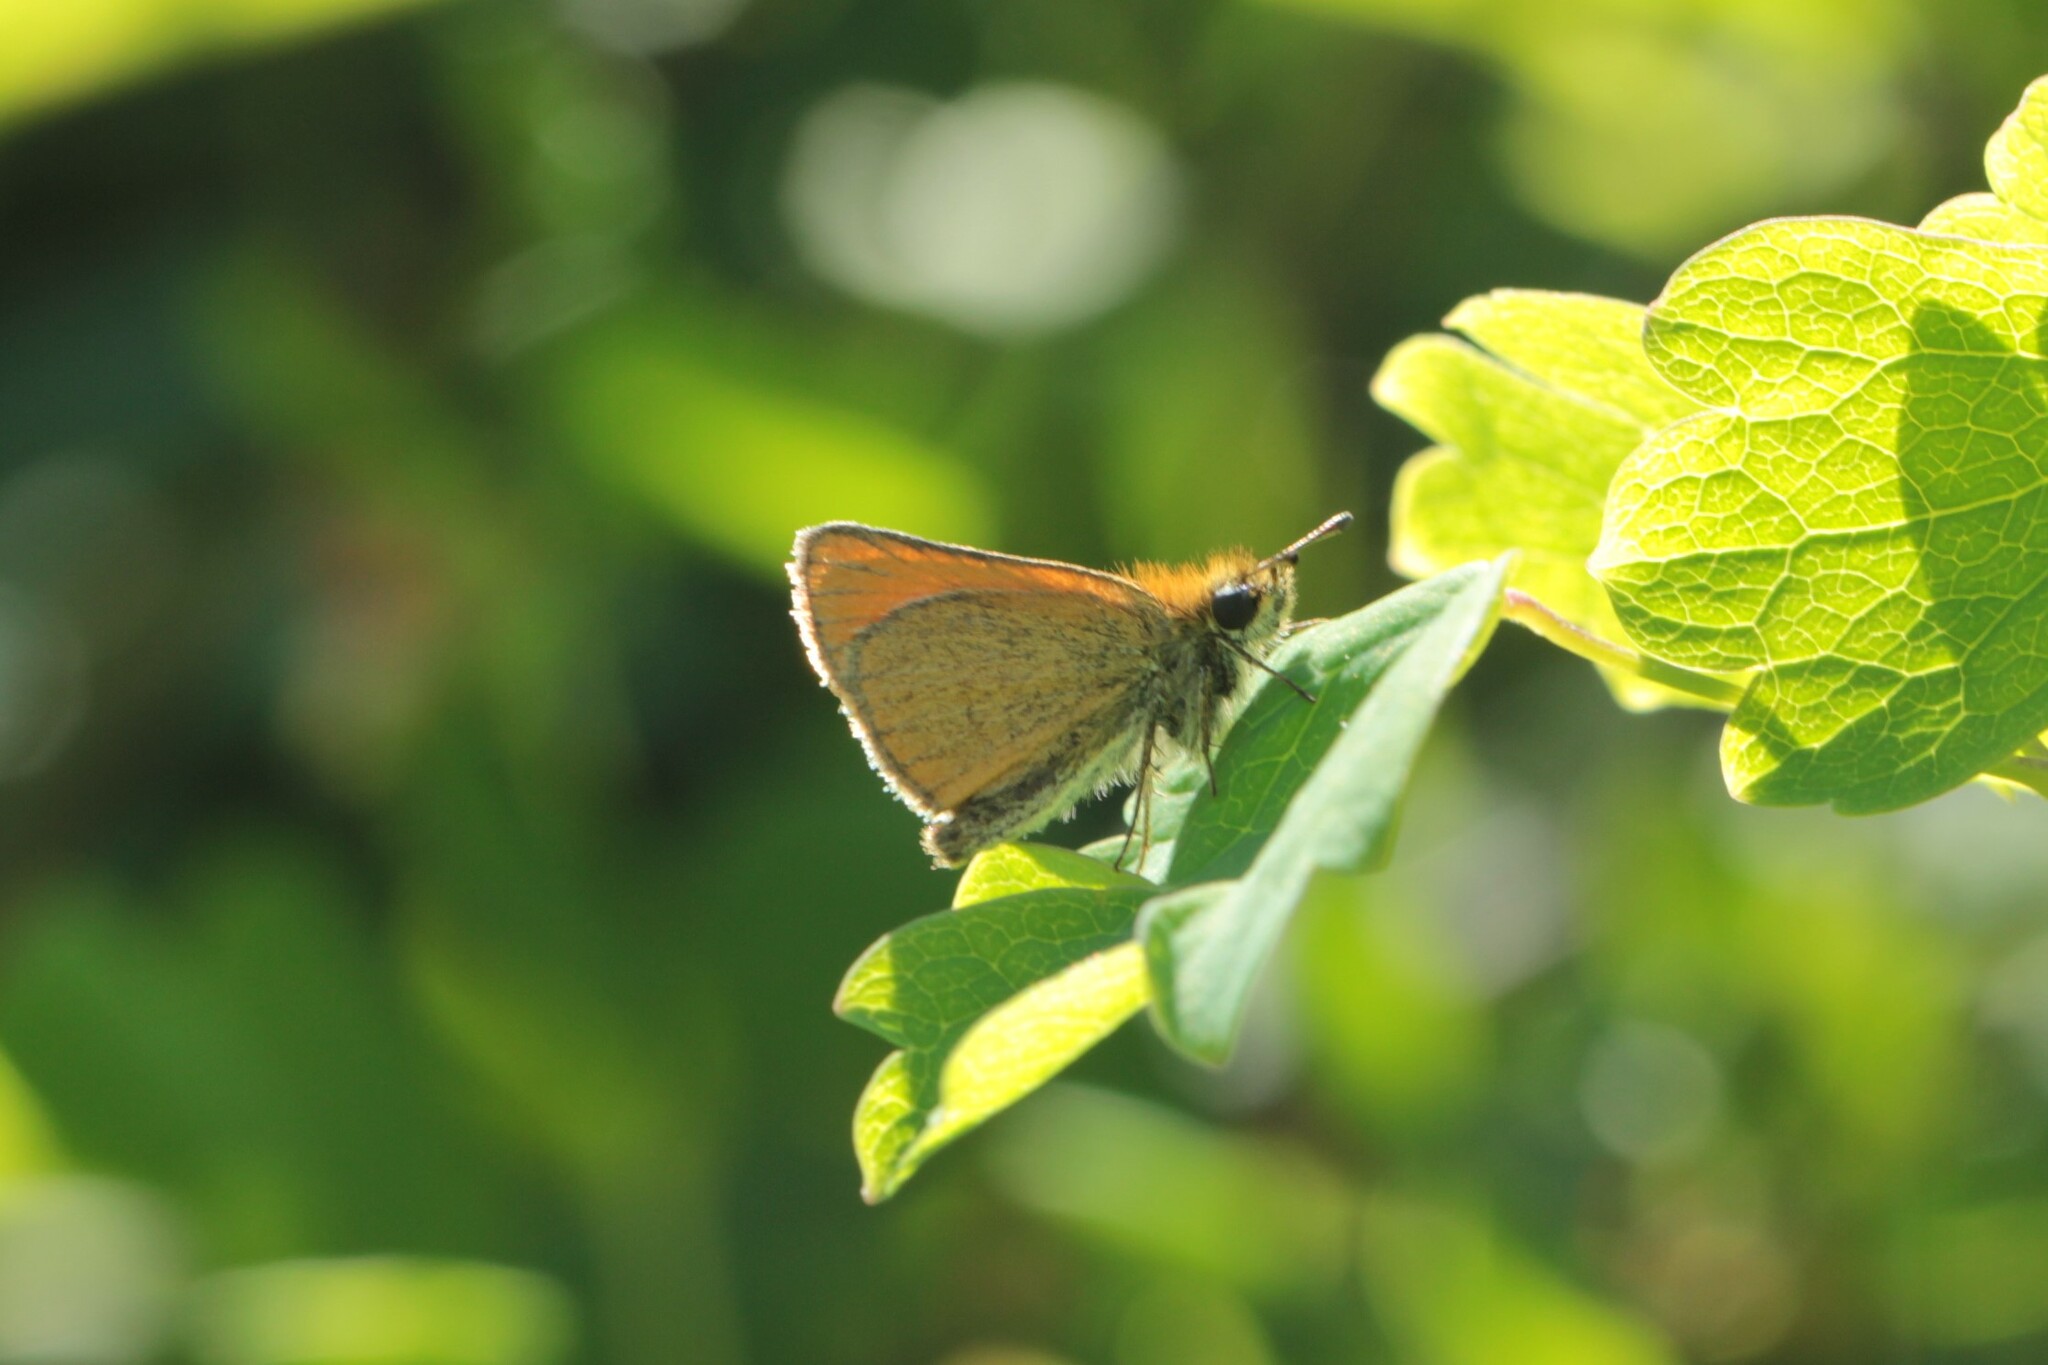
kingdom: Animalia
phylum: Arthropoda
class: Insecta
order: Lepidoptera
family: Hesperiidae
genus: Thymelicus
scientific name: Thymelicus lineola
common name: Essex skipper
